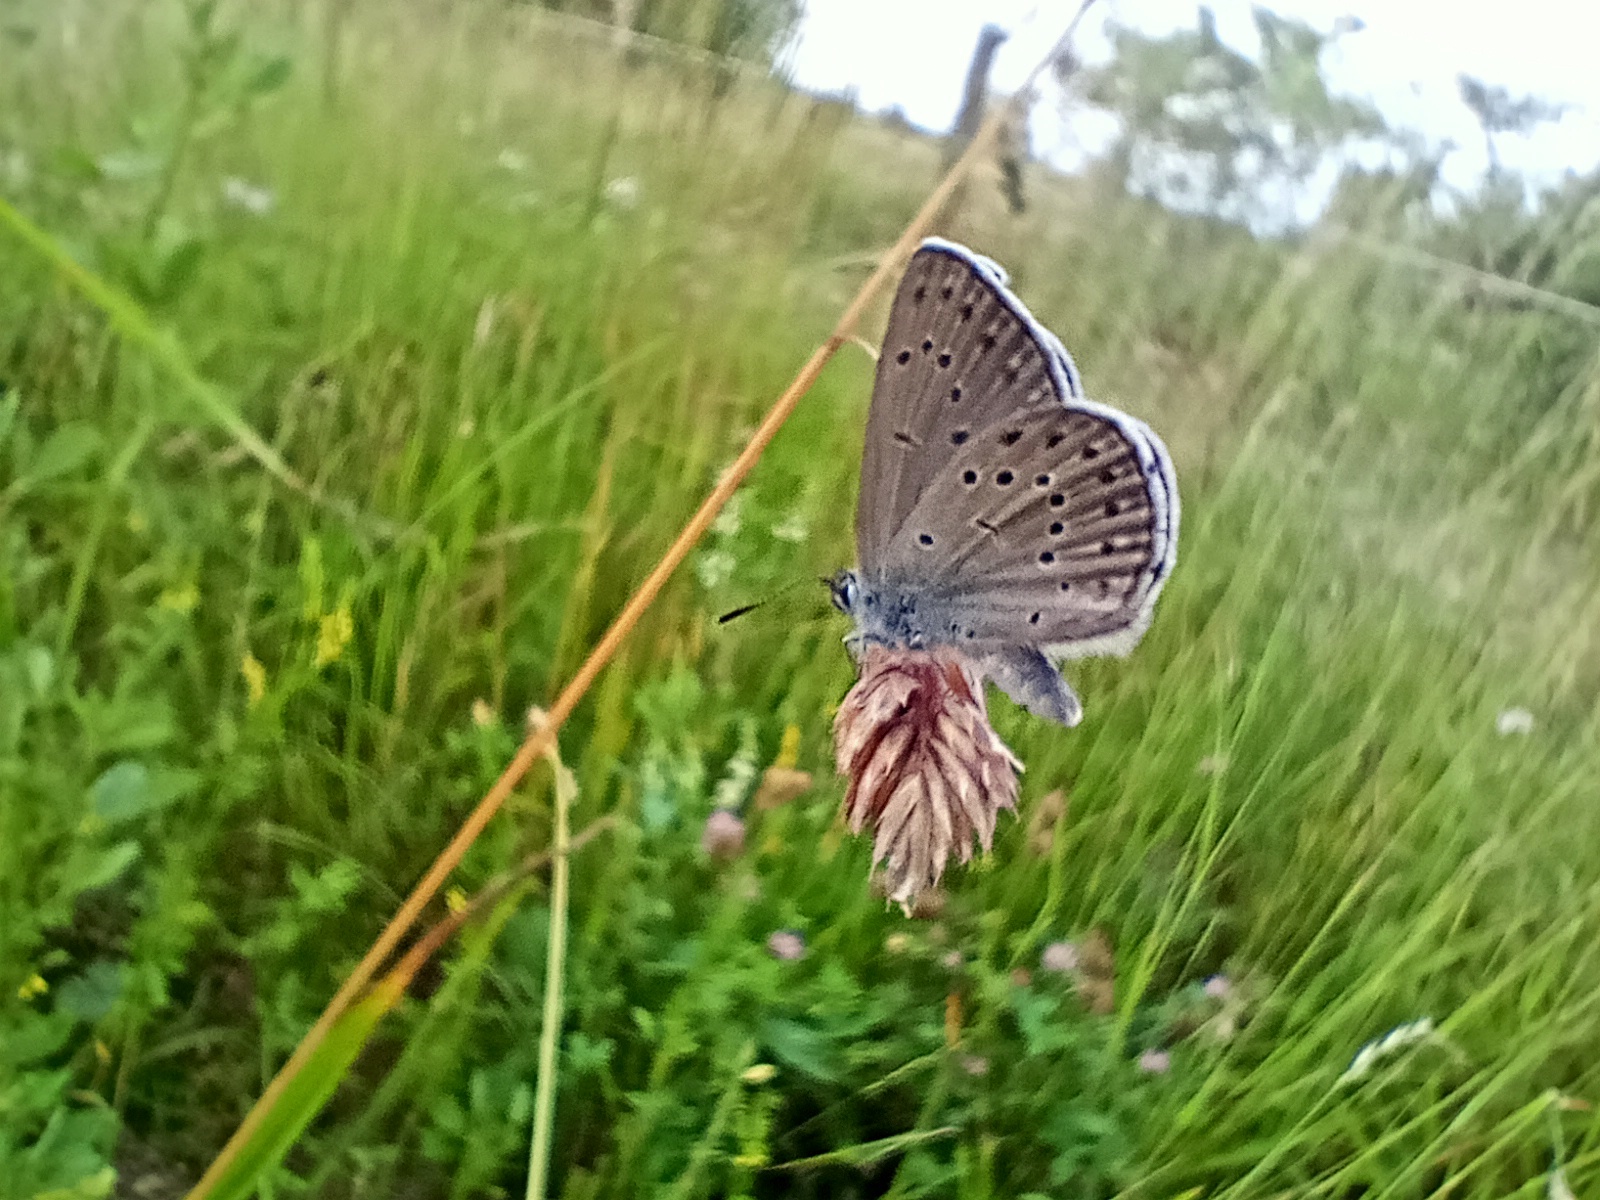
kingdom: Animalia
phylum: Arthropoda
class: Insecta
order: Lepidoptera
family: Lycaenidae
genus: Maculinea
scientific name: Maculinea alcon
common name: Alcon blue
